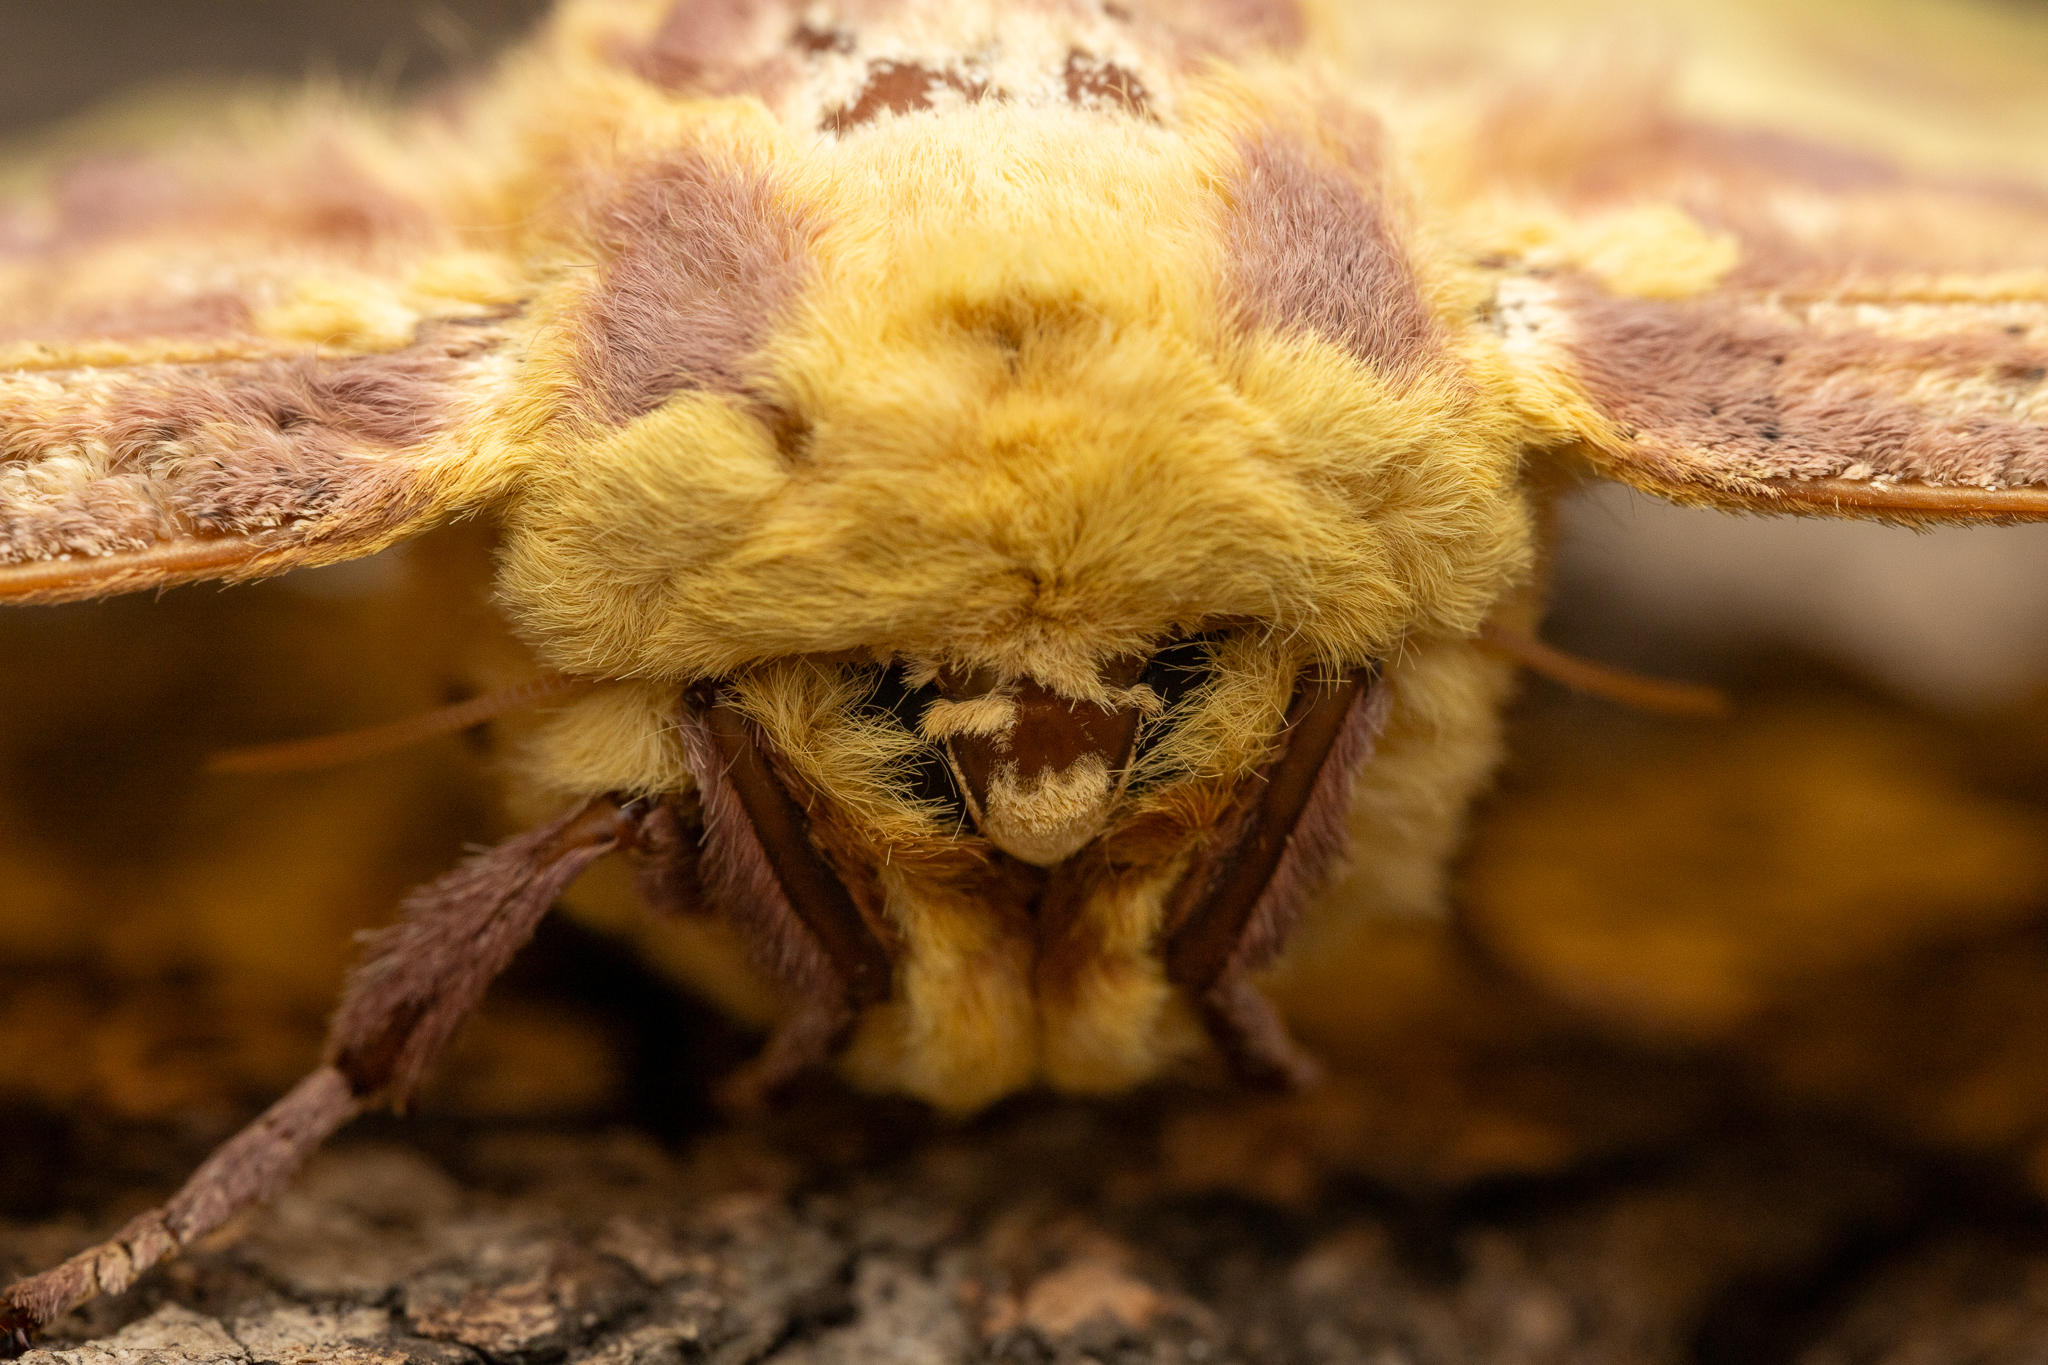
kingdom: Animalia
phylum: Arthropoda
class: Insecta
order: Lepidoptera
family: Saturniidae
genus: Eacles
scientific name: Eacles imperialis
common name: Imperial moth
